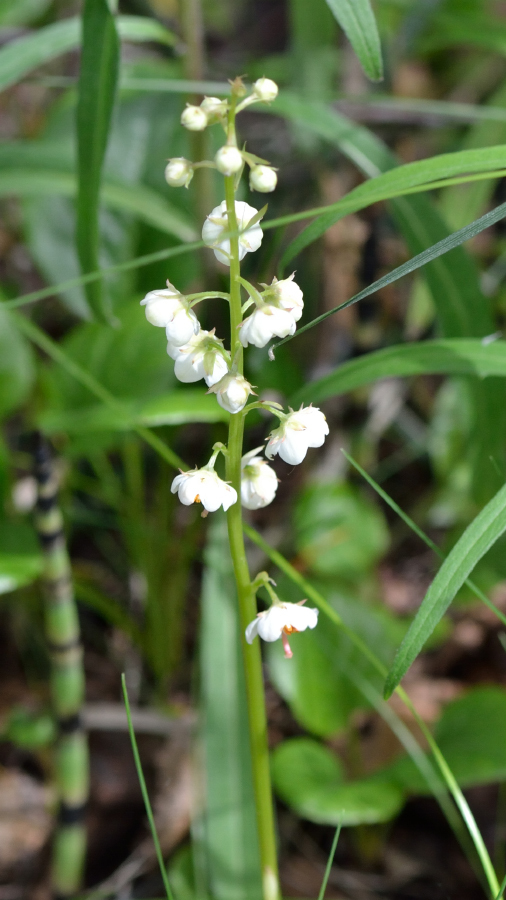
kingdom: Plantae
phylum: Tracheophyta
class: Magnoliopsida
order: Ericales
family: Ericaceae
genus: Pyrola
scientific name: Pyrola rotundifolia
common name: Round-leaved wintergreen
